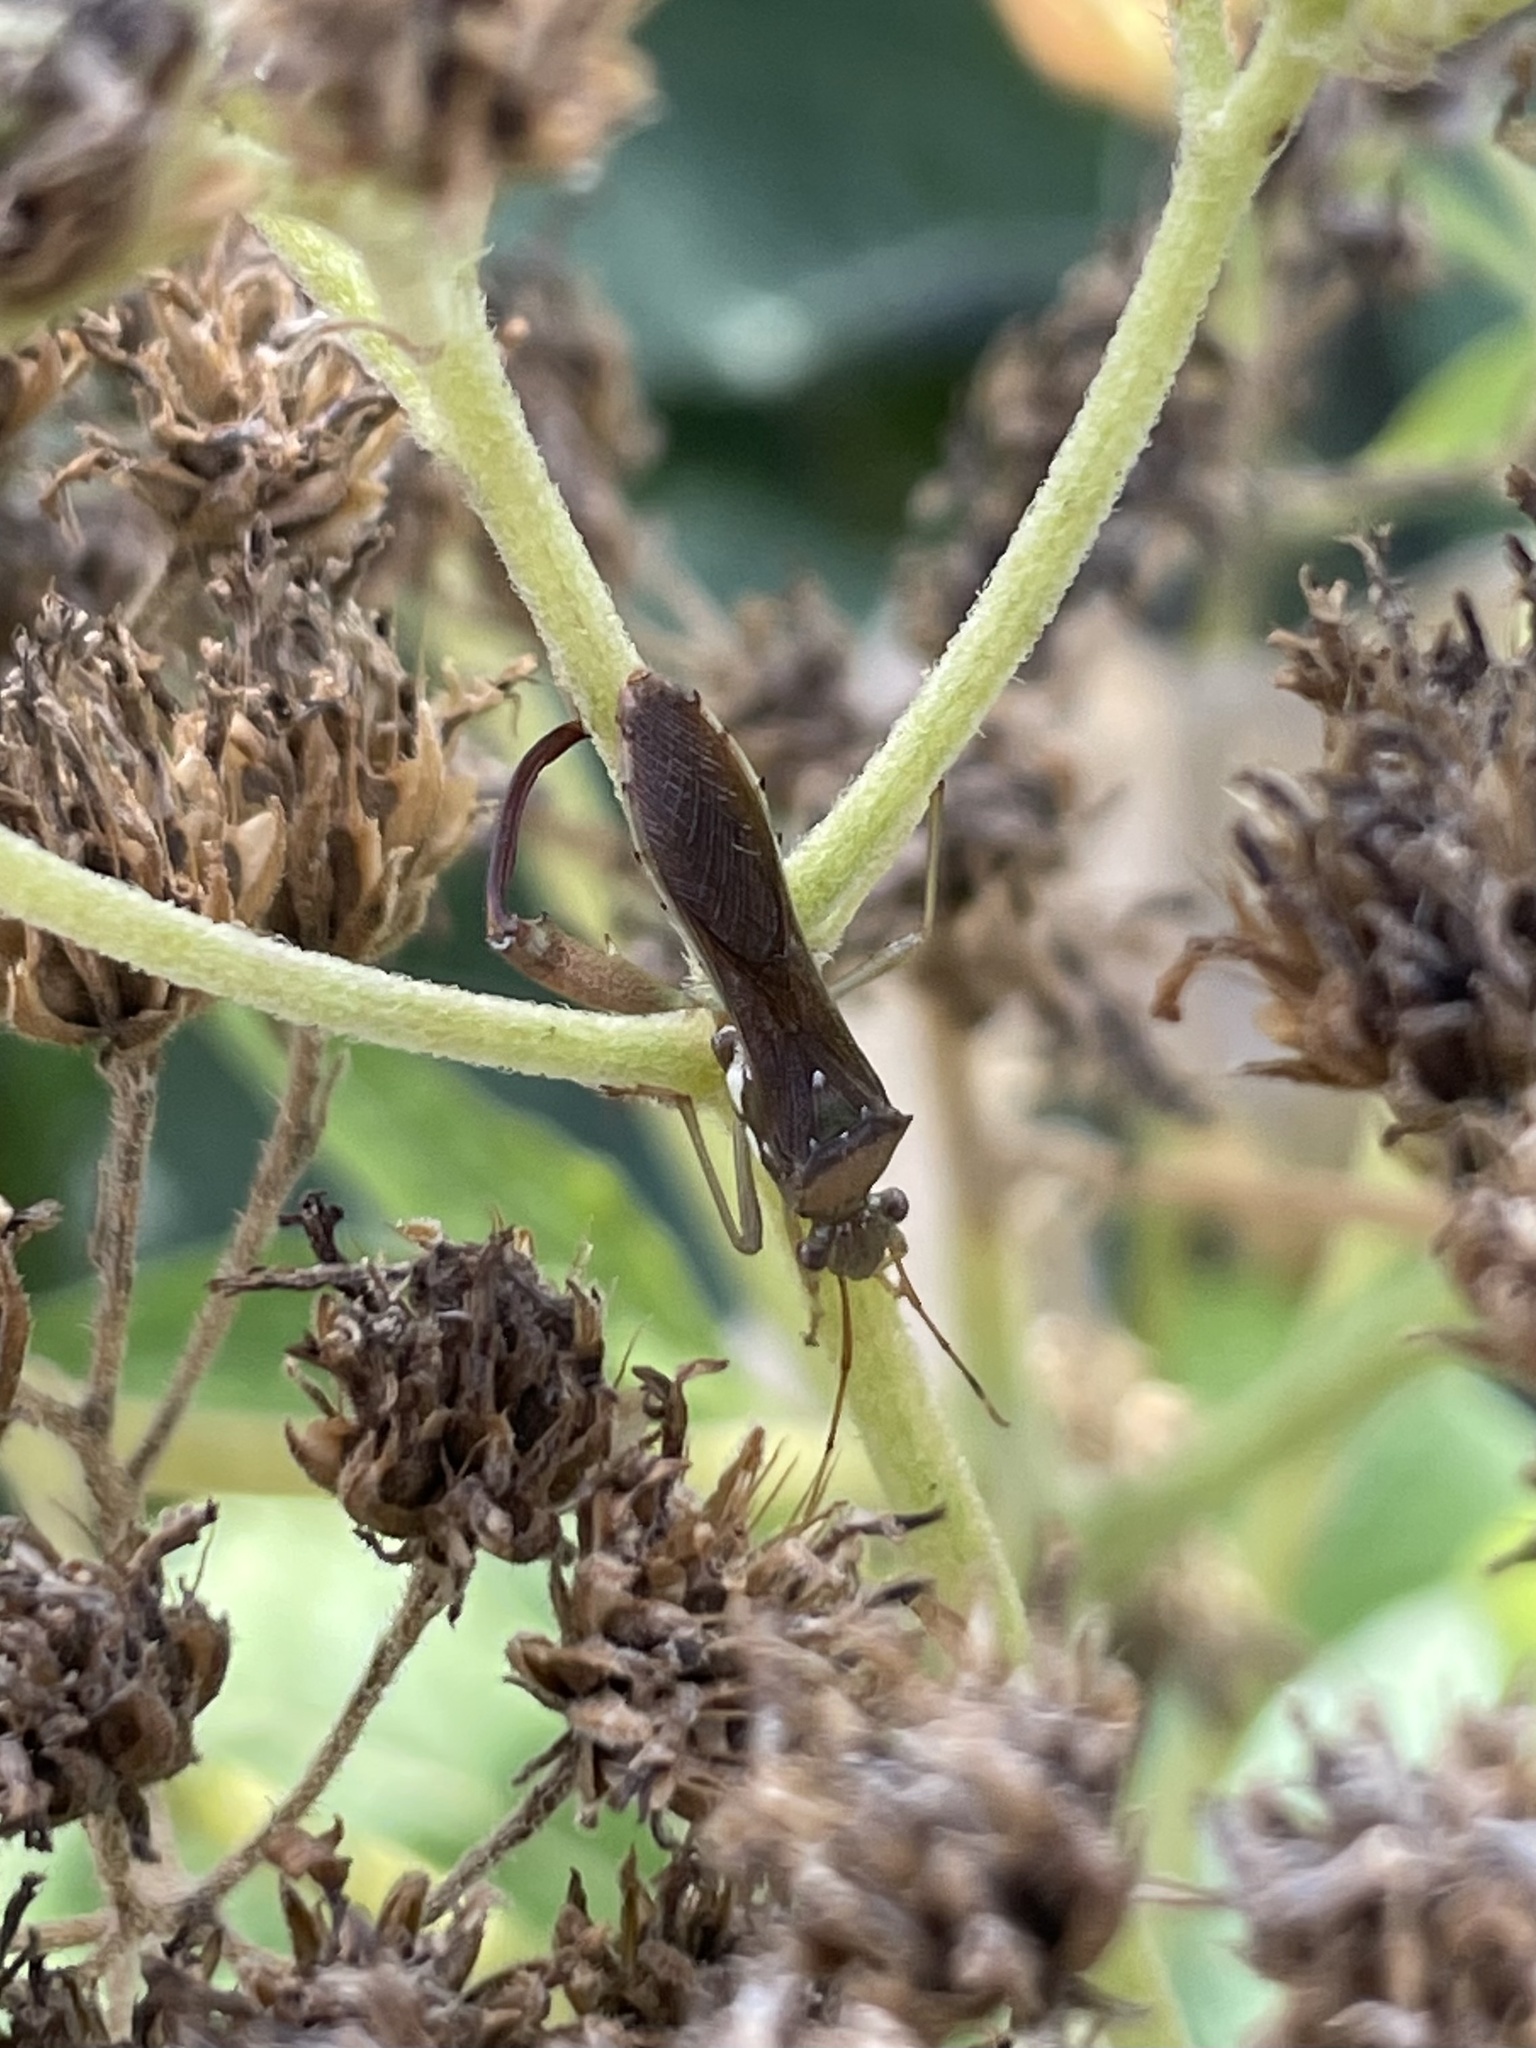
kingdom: Animalia
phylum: Arthropoda
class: Insecta
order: Hemiptera
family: Alydidae
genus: Hyalymenus
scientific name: Hyalymenus tarsatus
